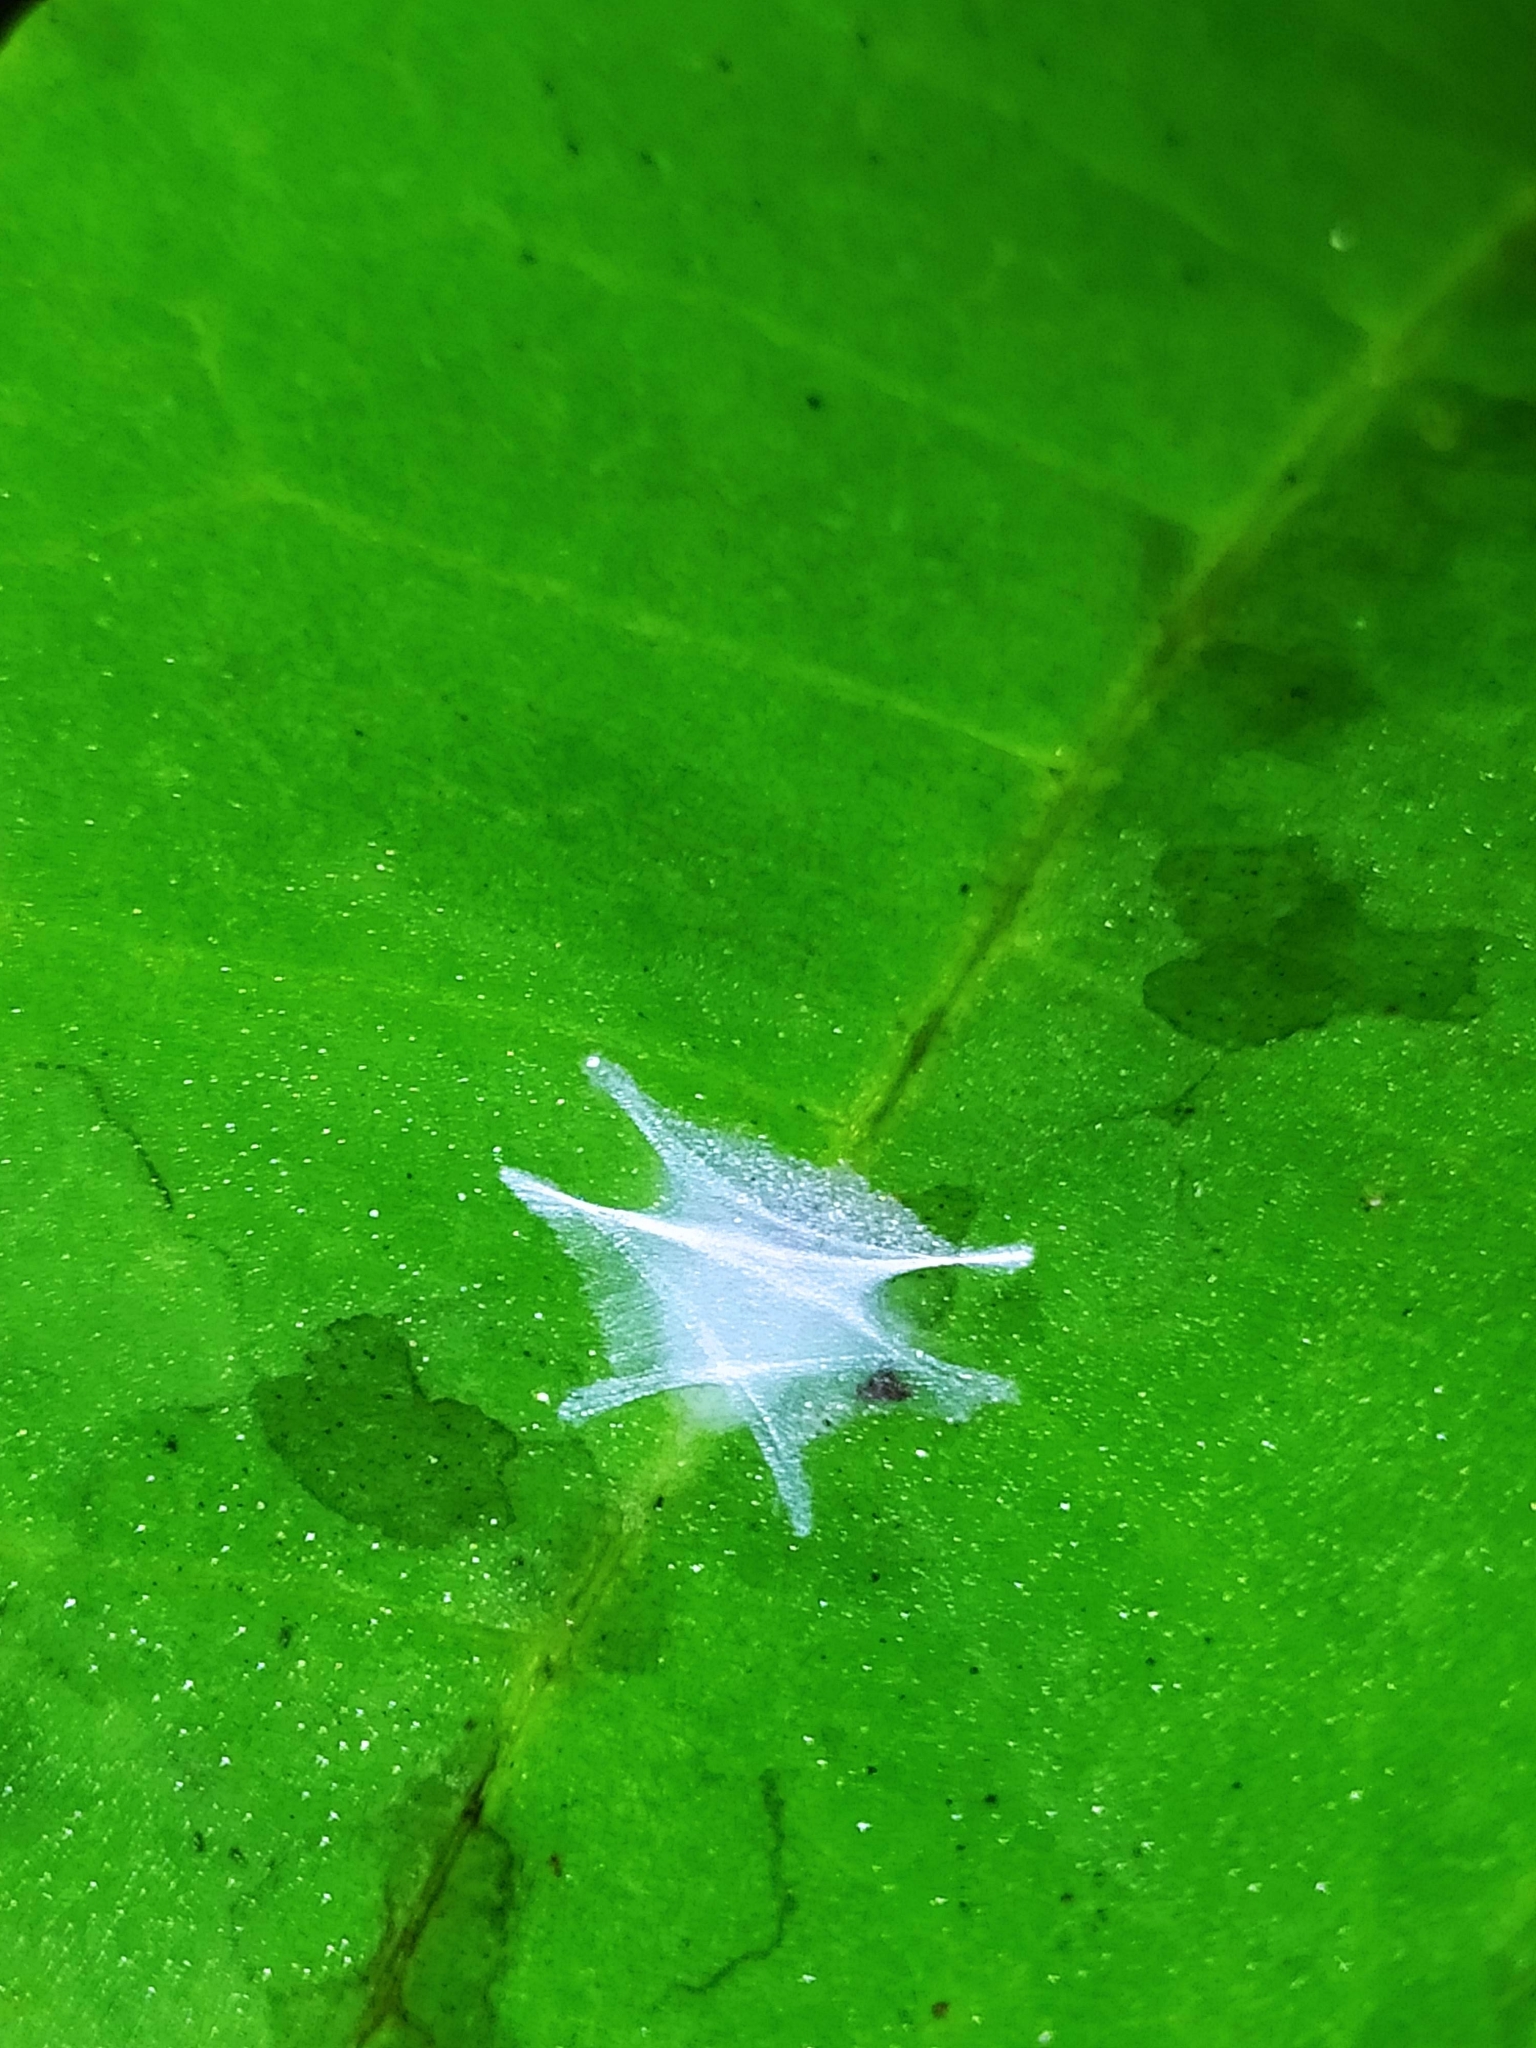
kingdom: Animalia
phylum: Arthropoda
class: Arachnida
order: Araneae
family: Salticidae
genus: Fritzia
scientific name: Fritzia muelleri
